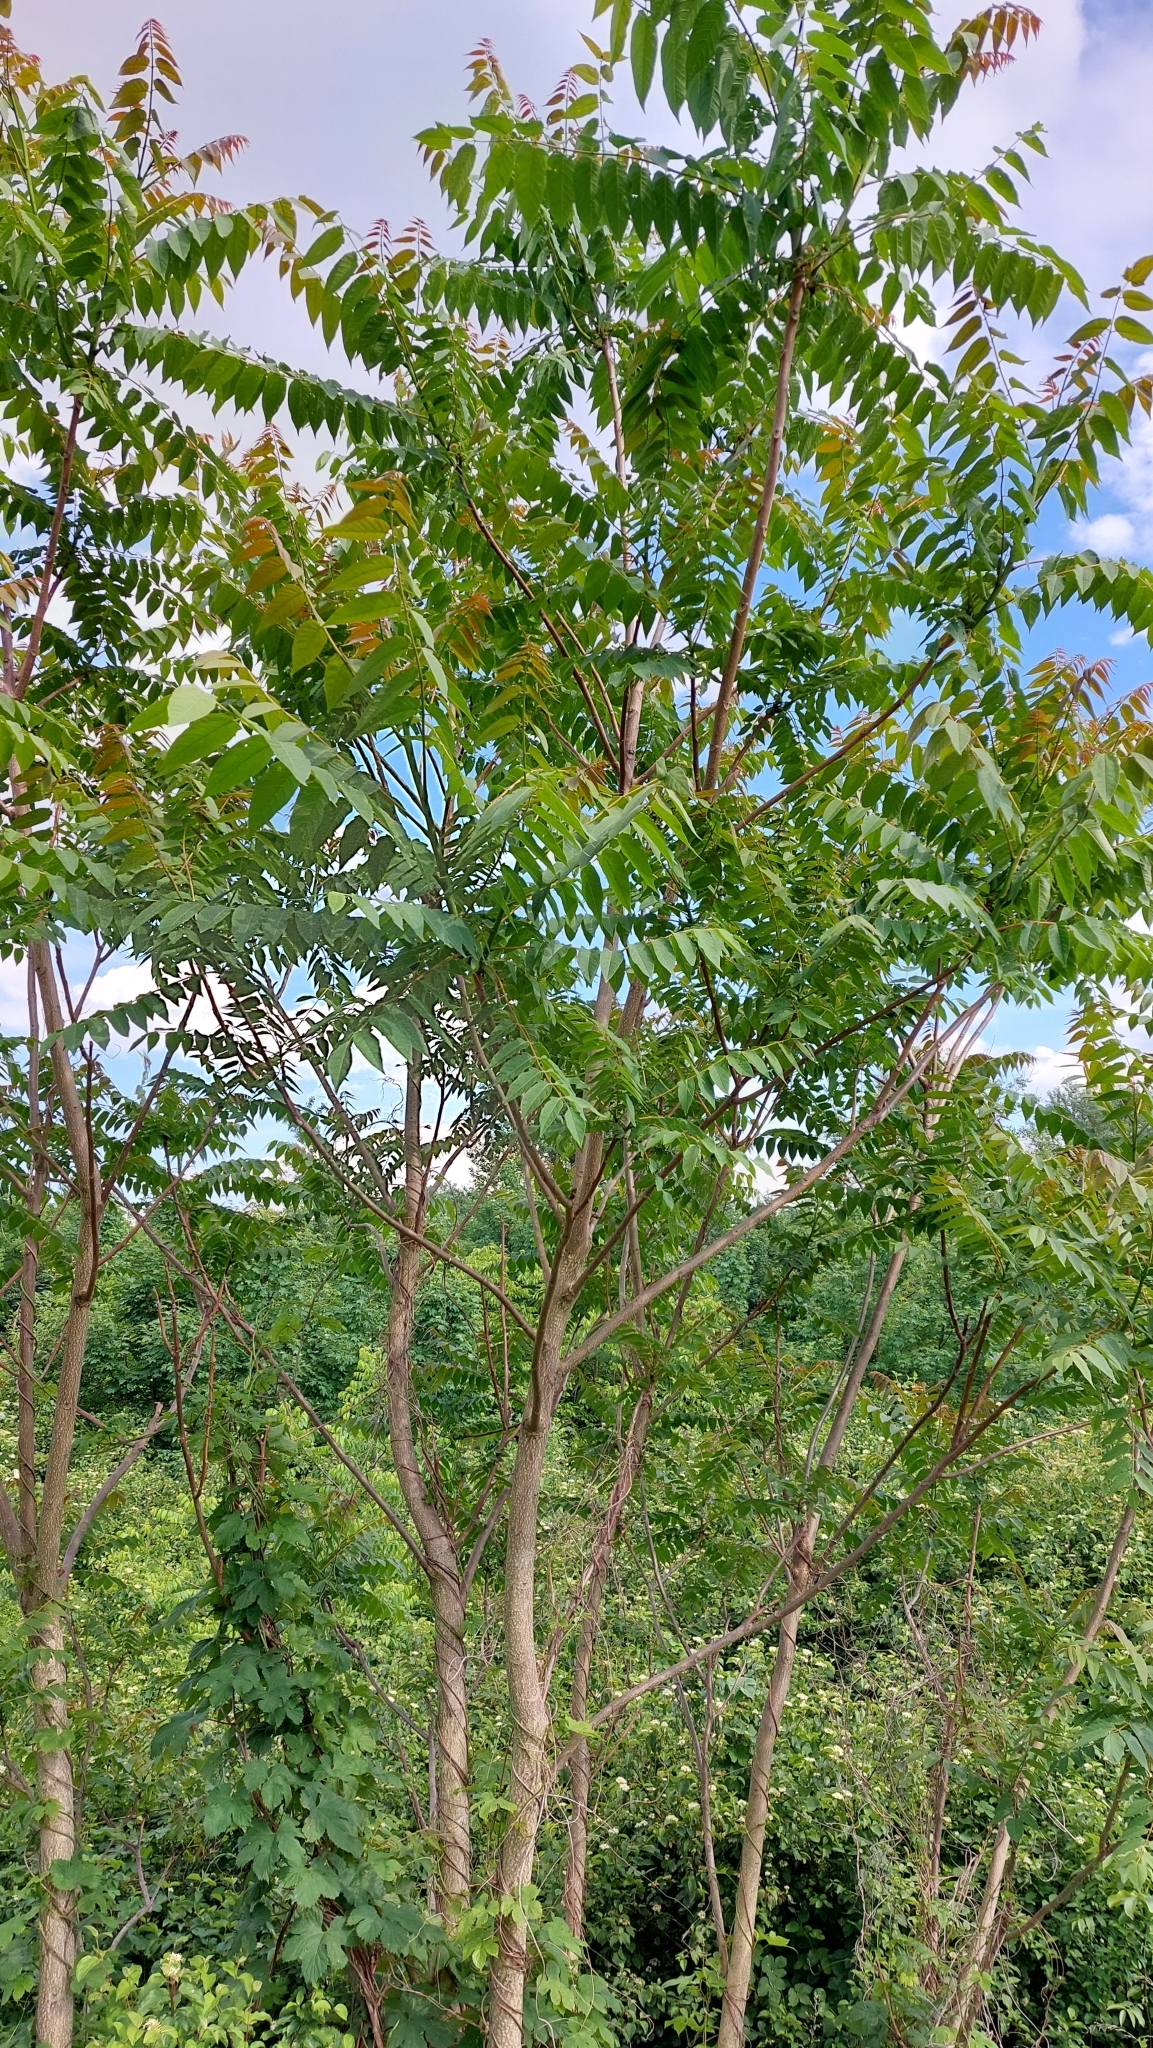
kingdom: Plantae
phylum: Tracheophyta
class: Magnoliopsida
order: Sapindales
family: Simaroubaceae
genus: Ailanthus
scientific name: Ailanthus altissima
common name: Tree-of-heaven
